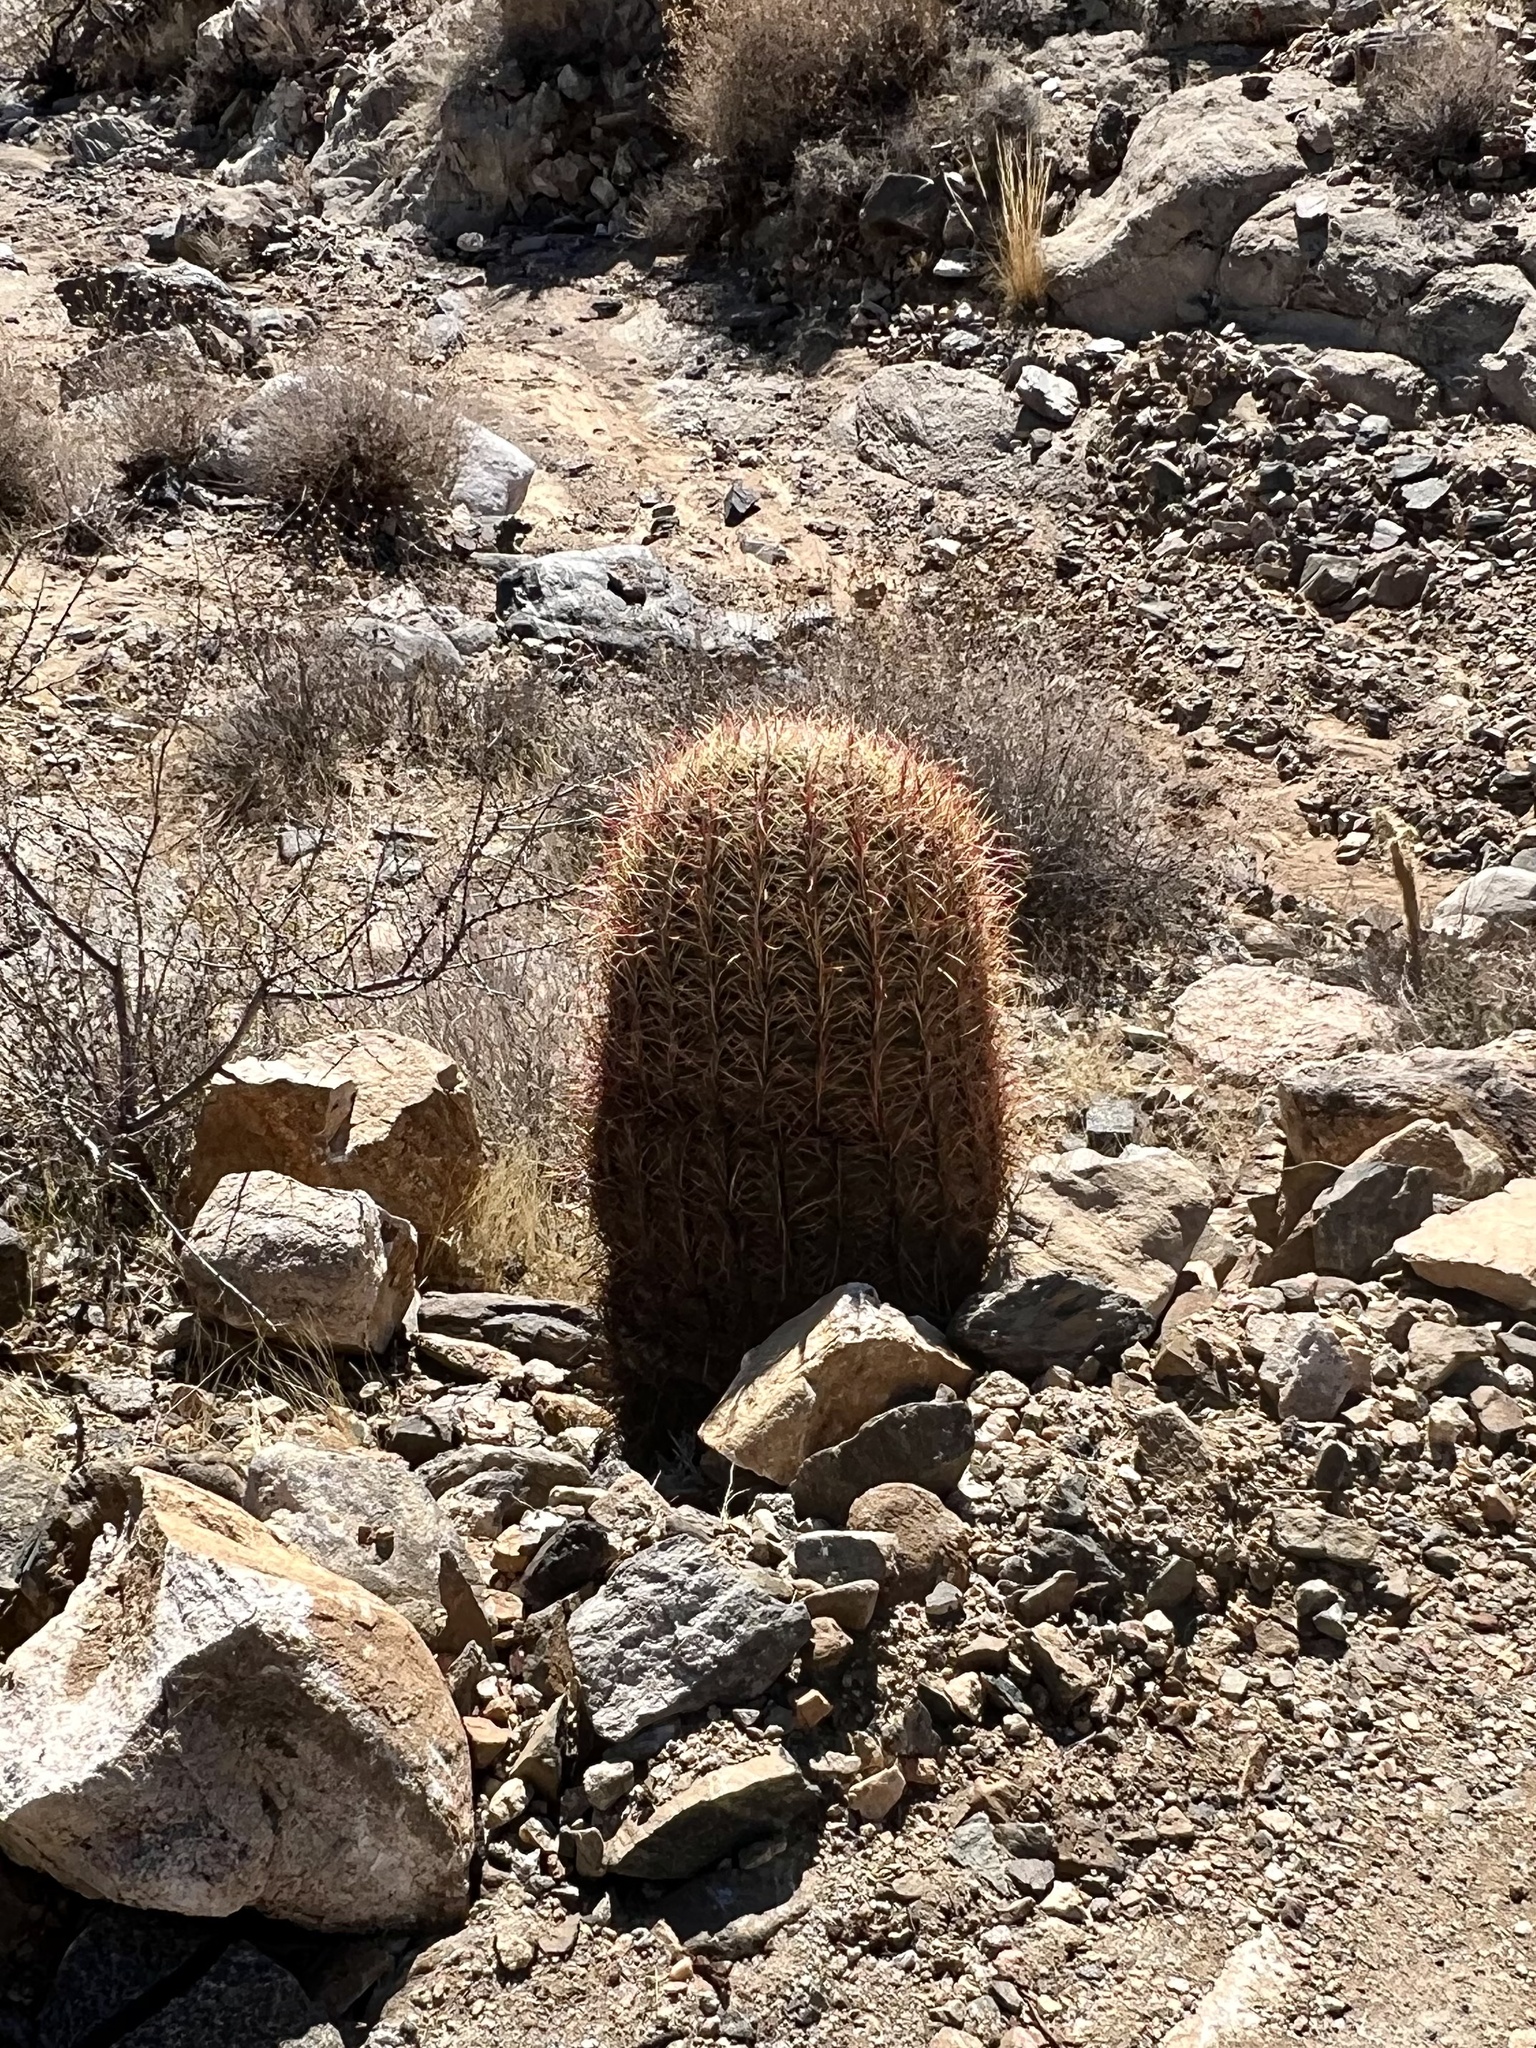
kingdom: Plantae
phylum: Tracheophyta
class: Magnoliopsida
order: Caryophyllales
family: Cactaceae
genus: Ferocactus
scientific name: Ferocactus cylindraceus
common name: California barrel cactus
